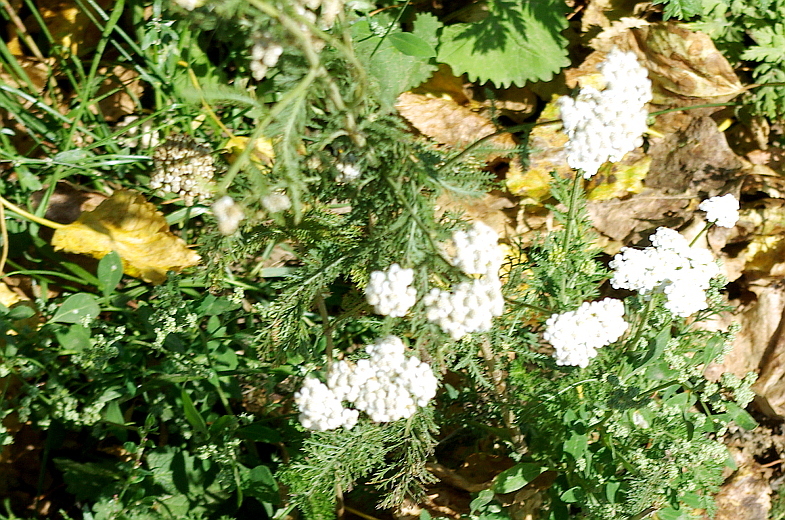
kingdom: Plantae
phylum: Tracheophyta
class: Magnoliopsida
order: Asterales
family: Asteraceae
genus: Achillea
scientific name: Achillea millefolium
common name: Yarrow
